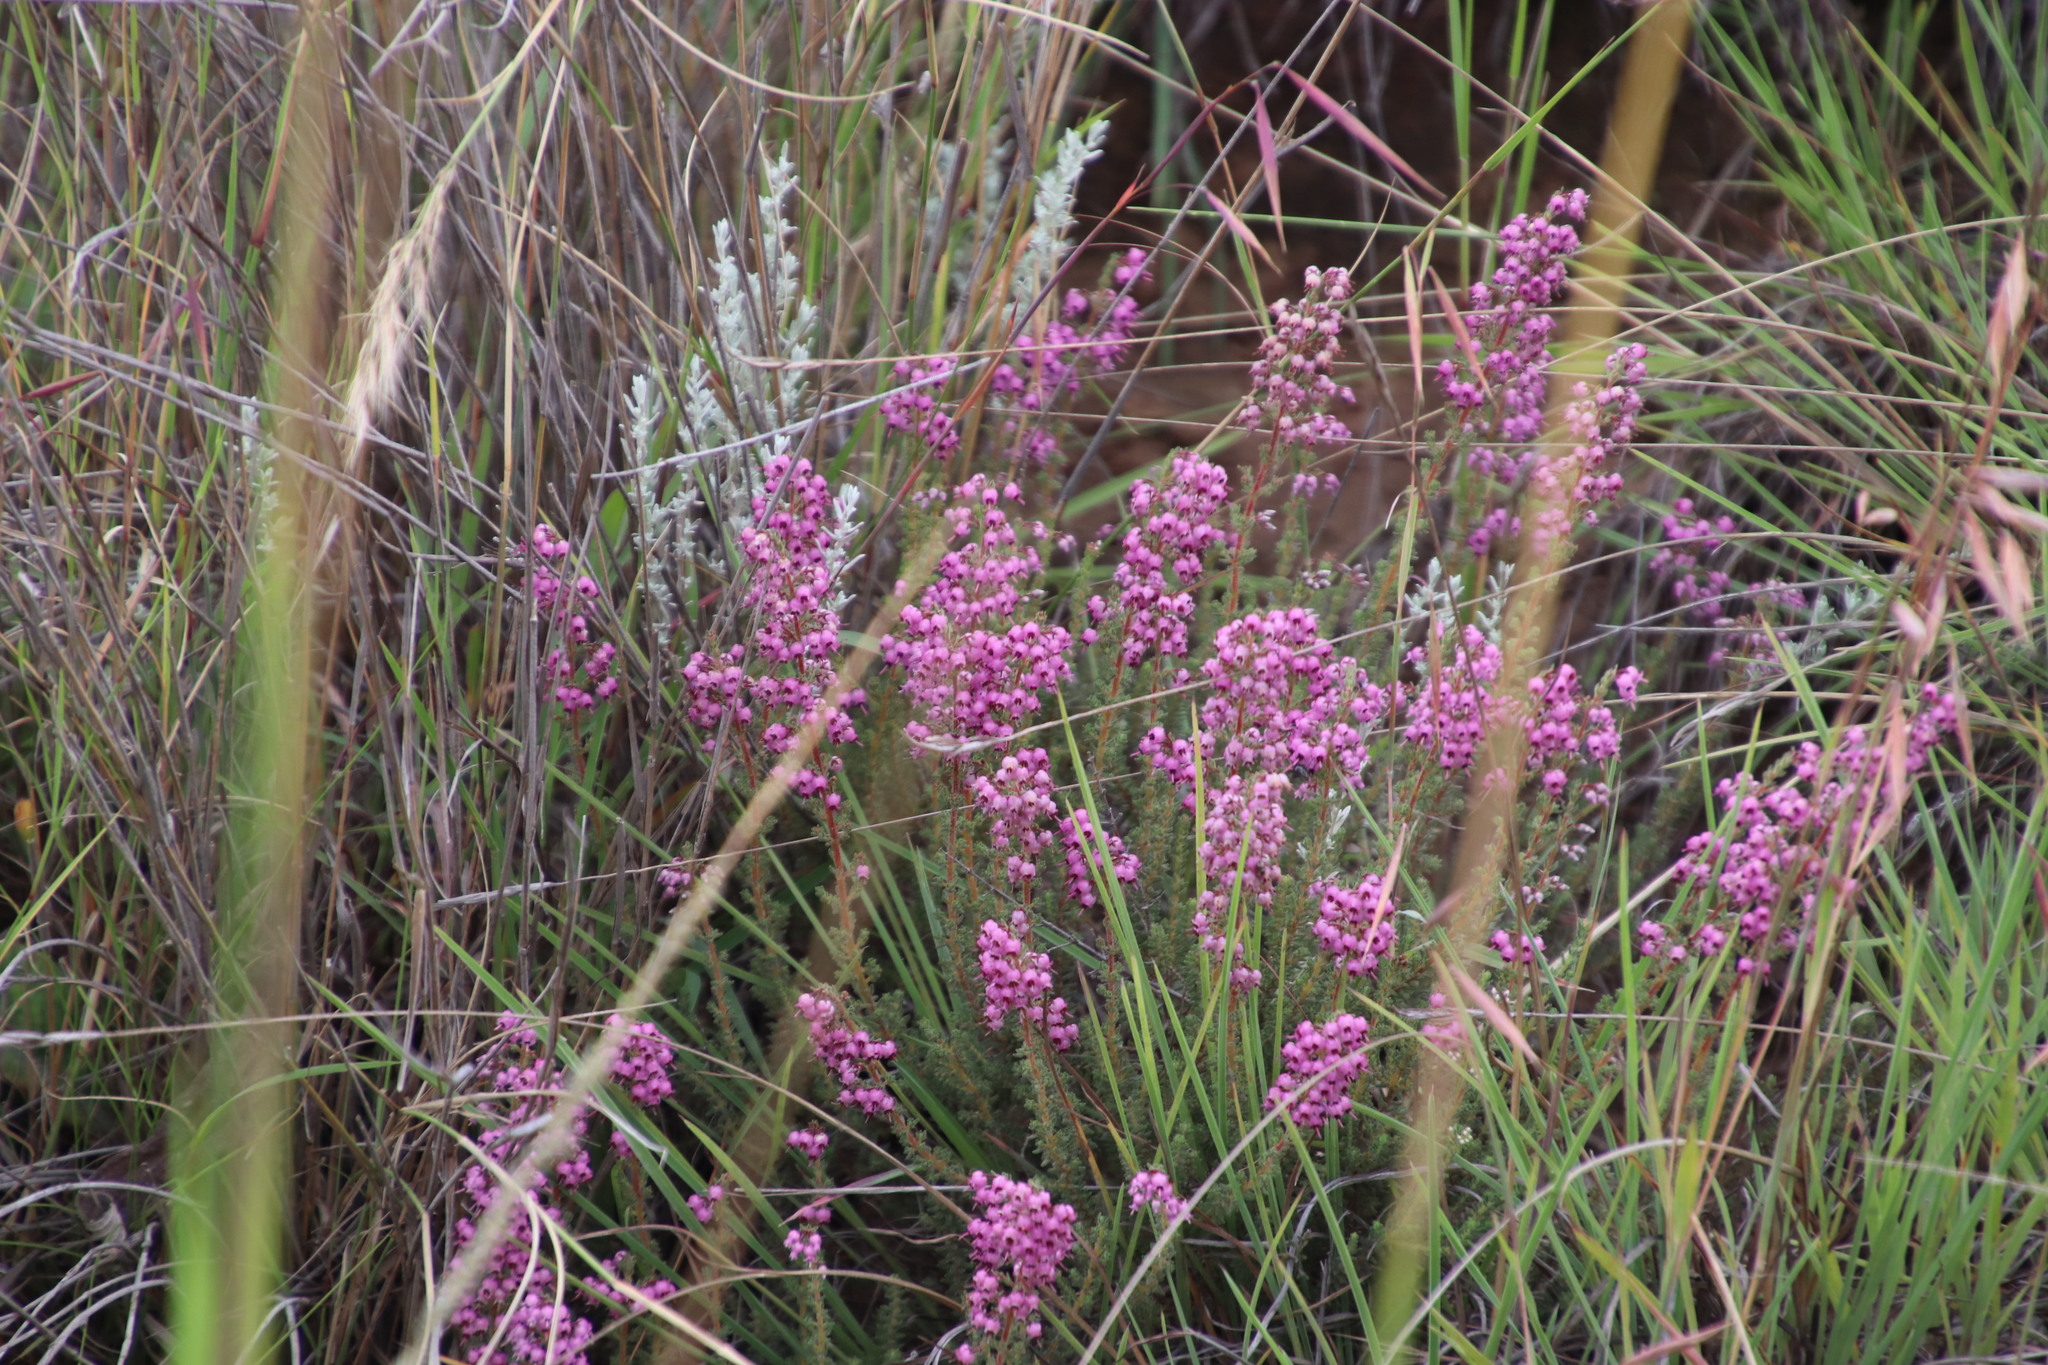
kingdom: Plantae
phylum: Tracheophyta
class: Magnoliopsida
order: Ericales
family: Ericaceae
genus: Erica
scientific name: Erica aestiva
